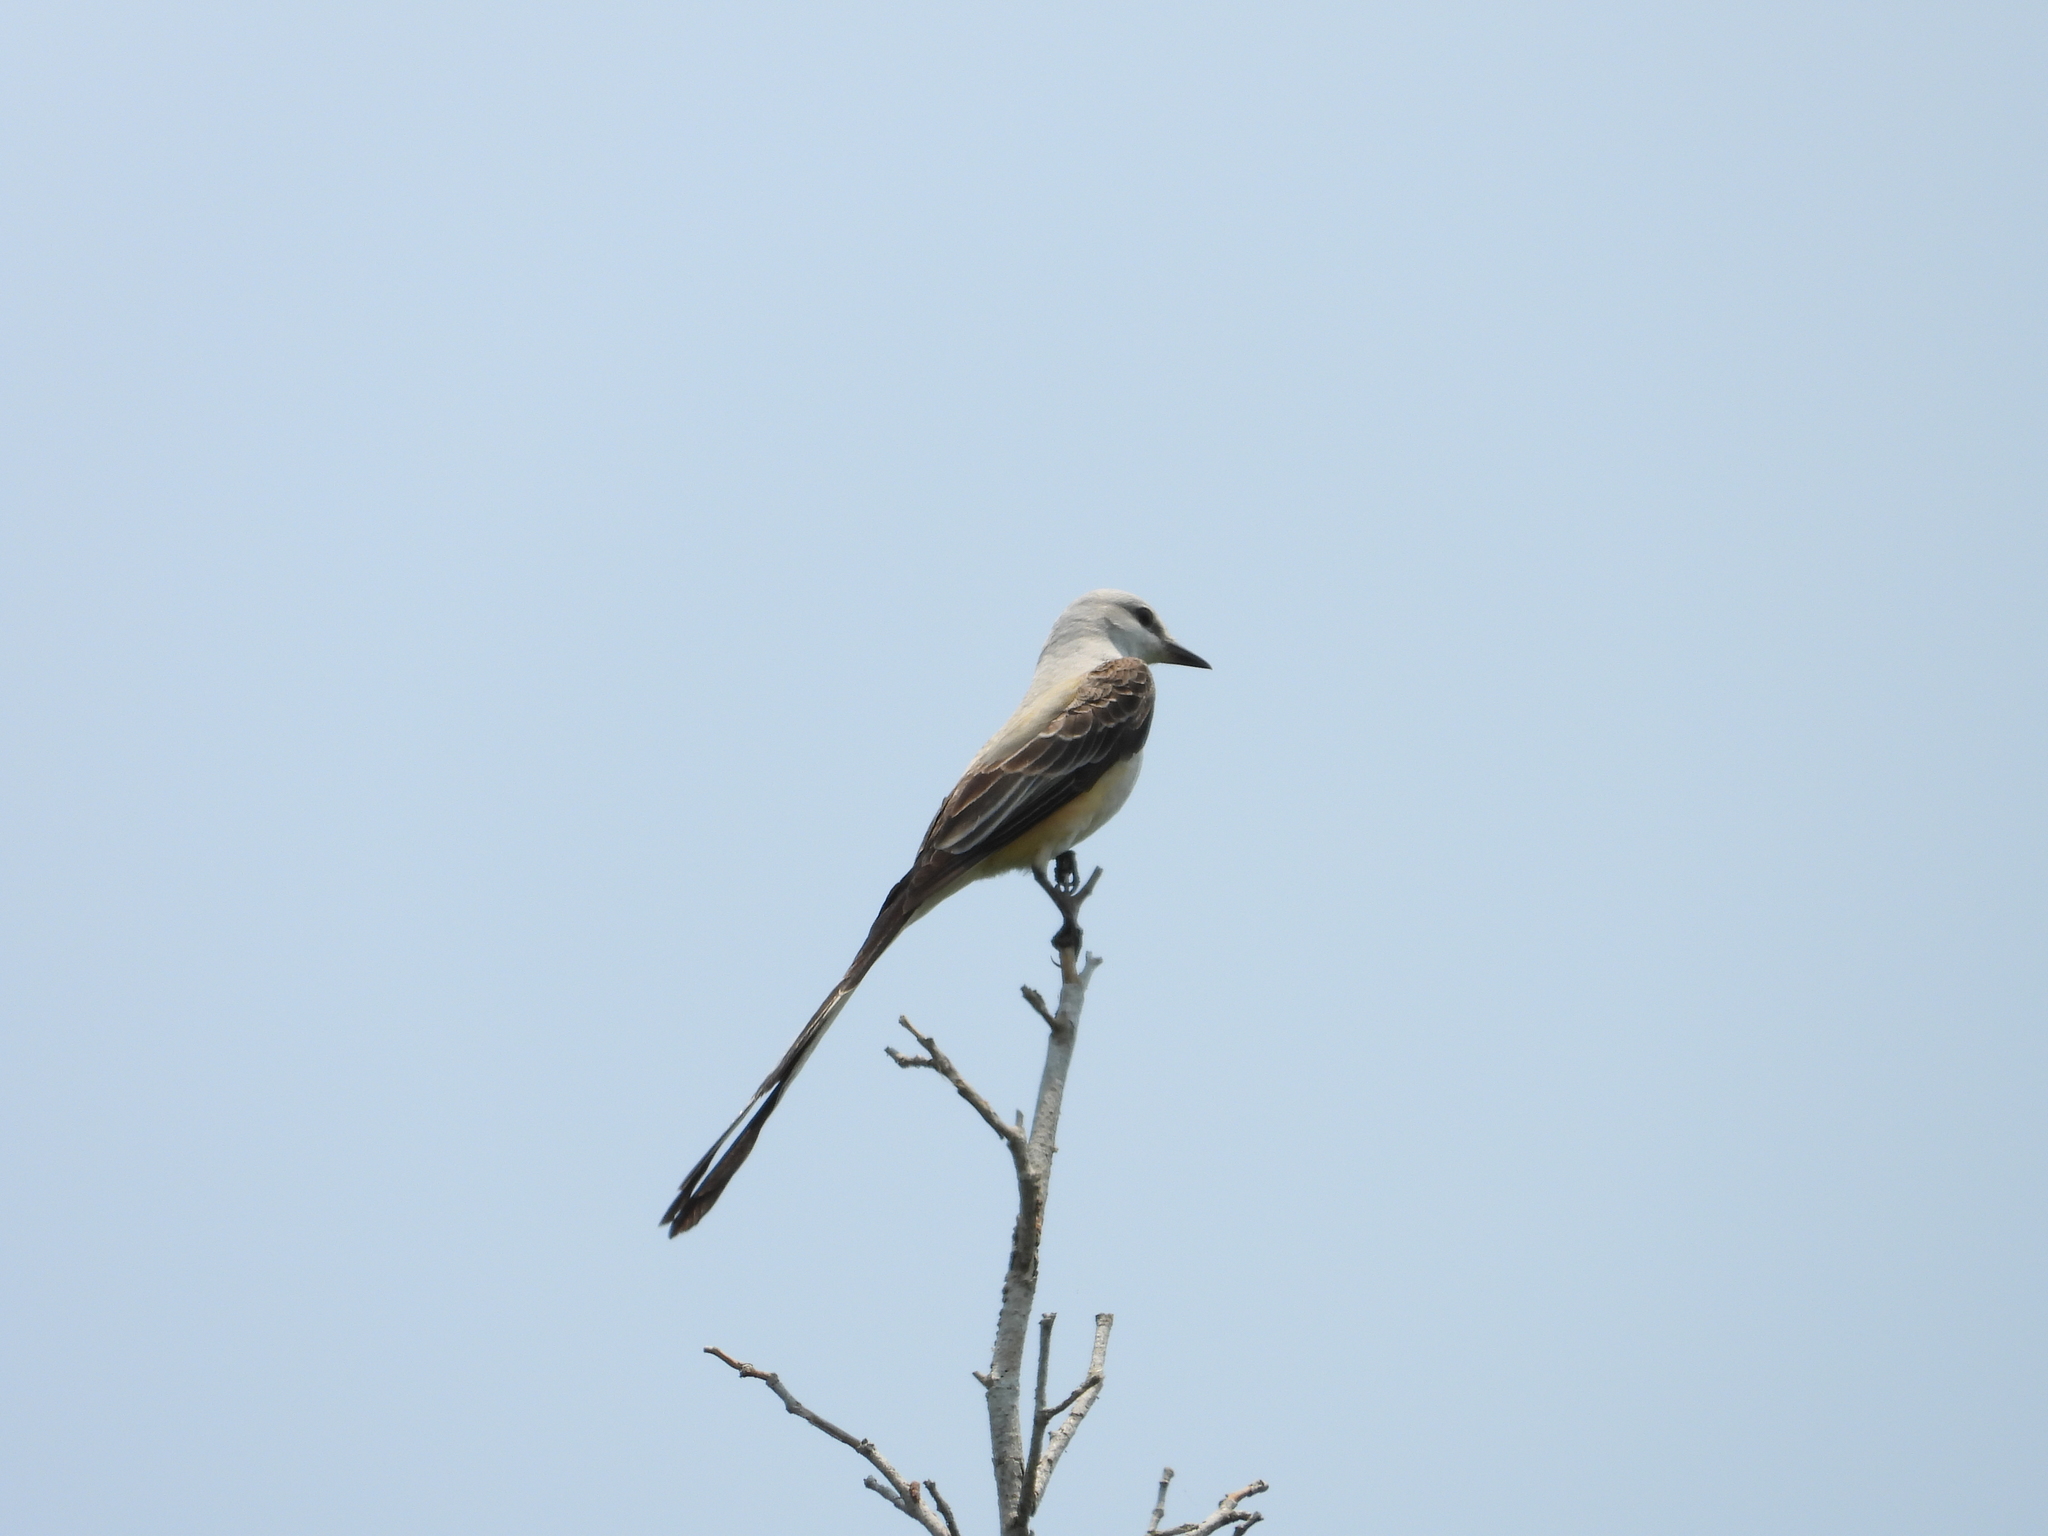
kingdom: Animalia
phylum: Chordata
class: Aves
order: Passeriformes
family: Tyrannidae
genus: Tyrannus
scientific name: Tyrannus forficatus
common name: Scissor-tailed flycatcher
